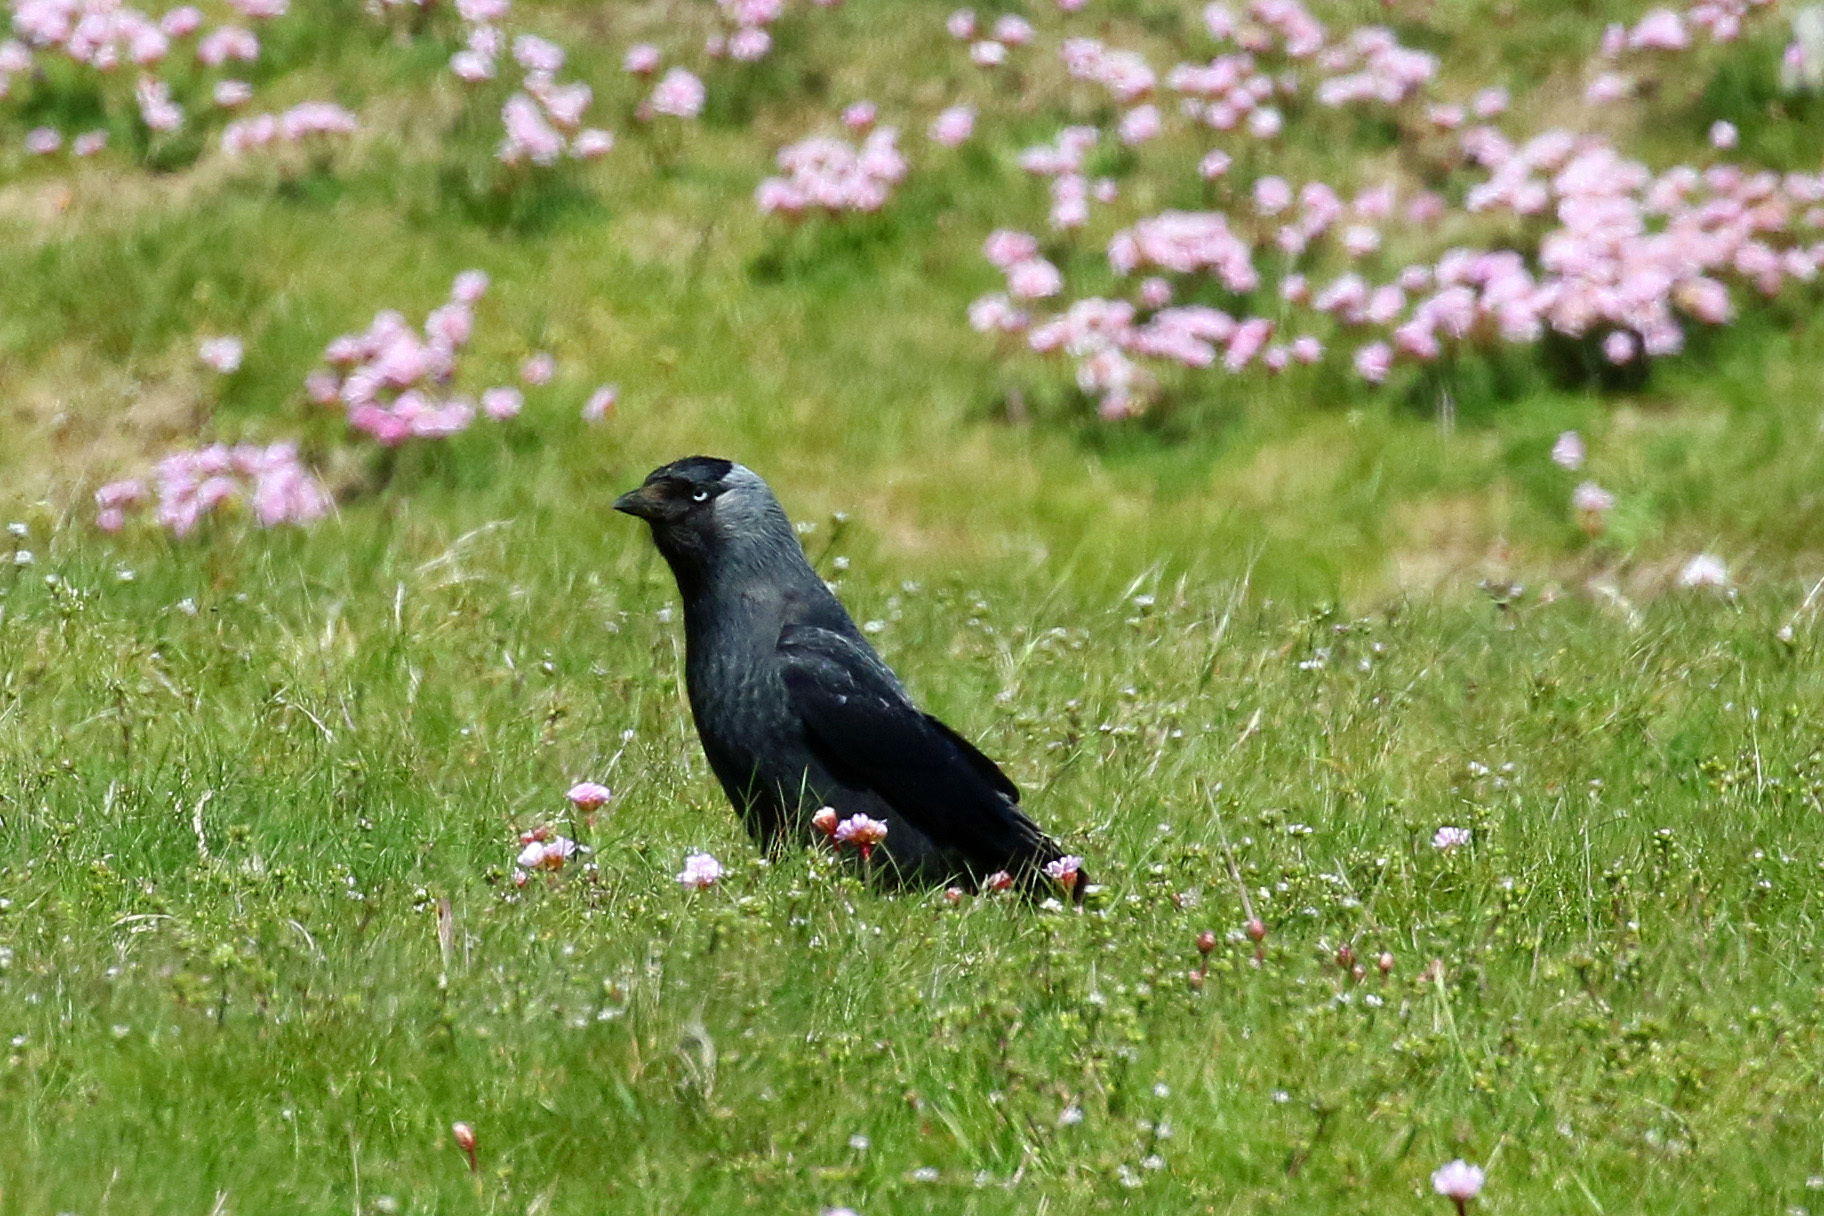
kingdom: Animalia
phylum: Chordata
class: Aves
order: Passeriformes
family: Corvidae
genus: Coloeus
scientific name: Coloeus monedula
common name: Western jackdaw
